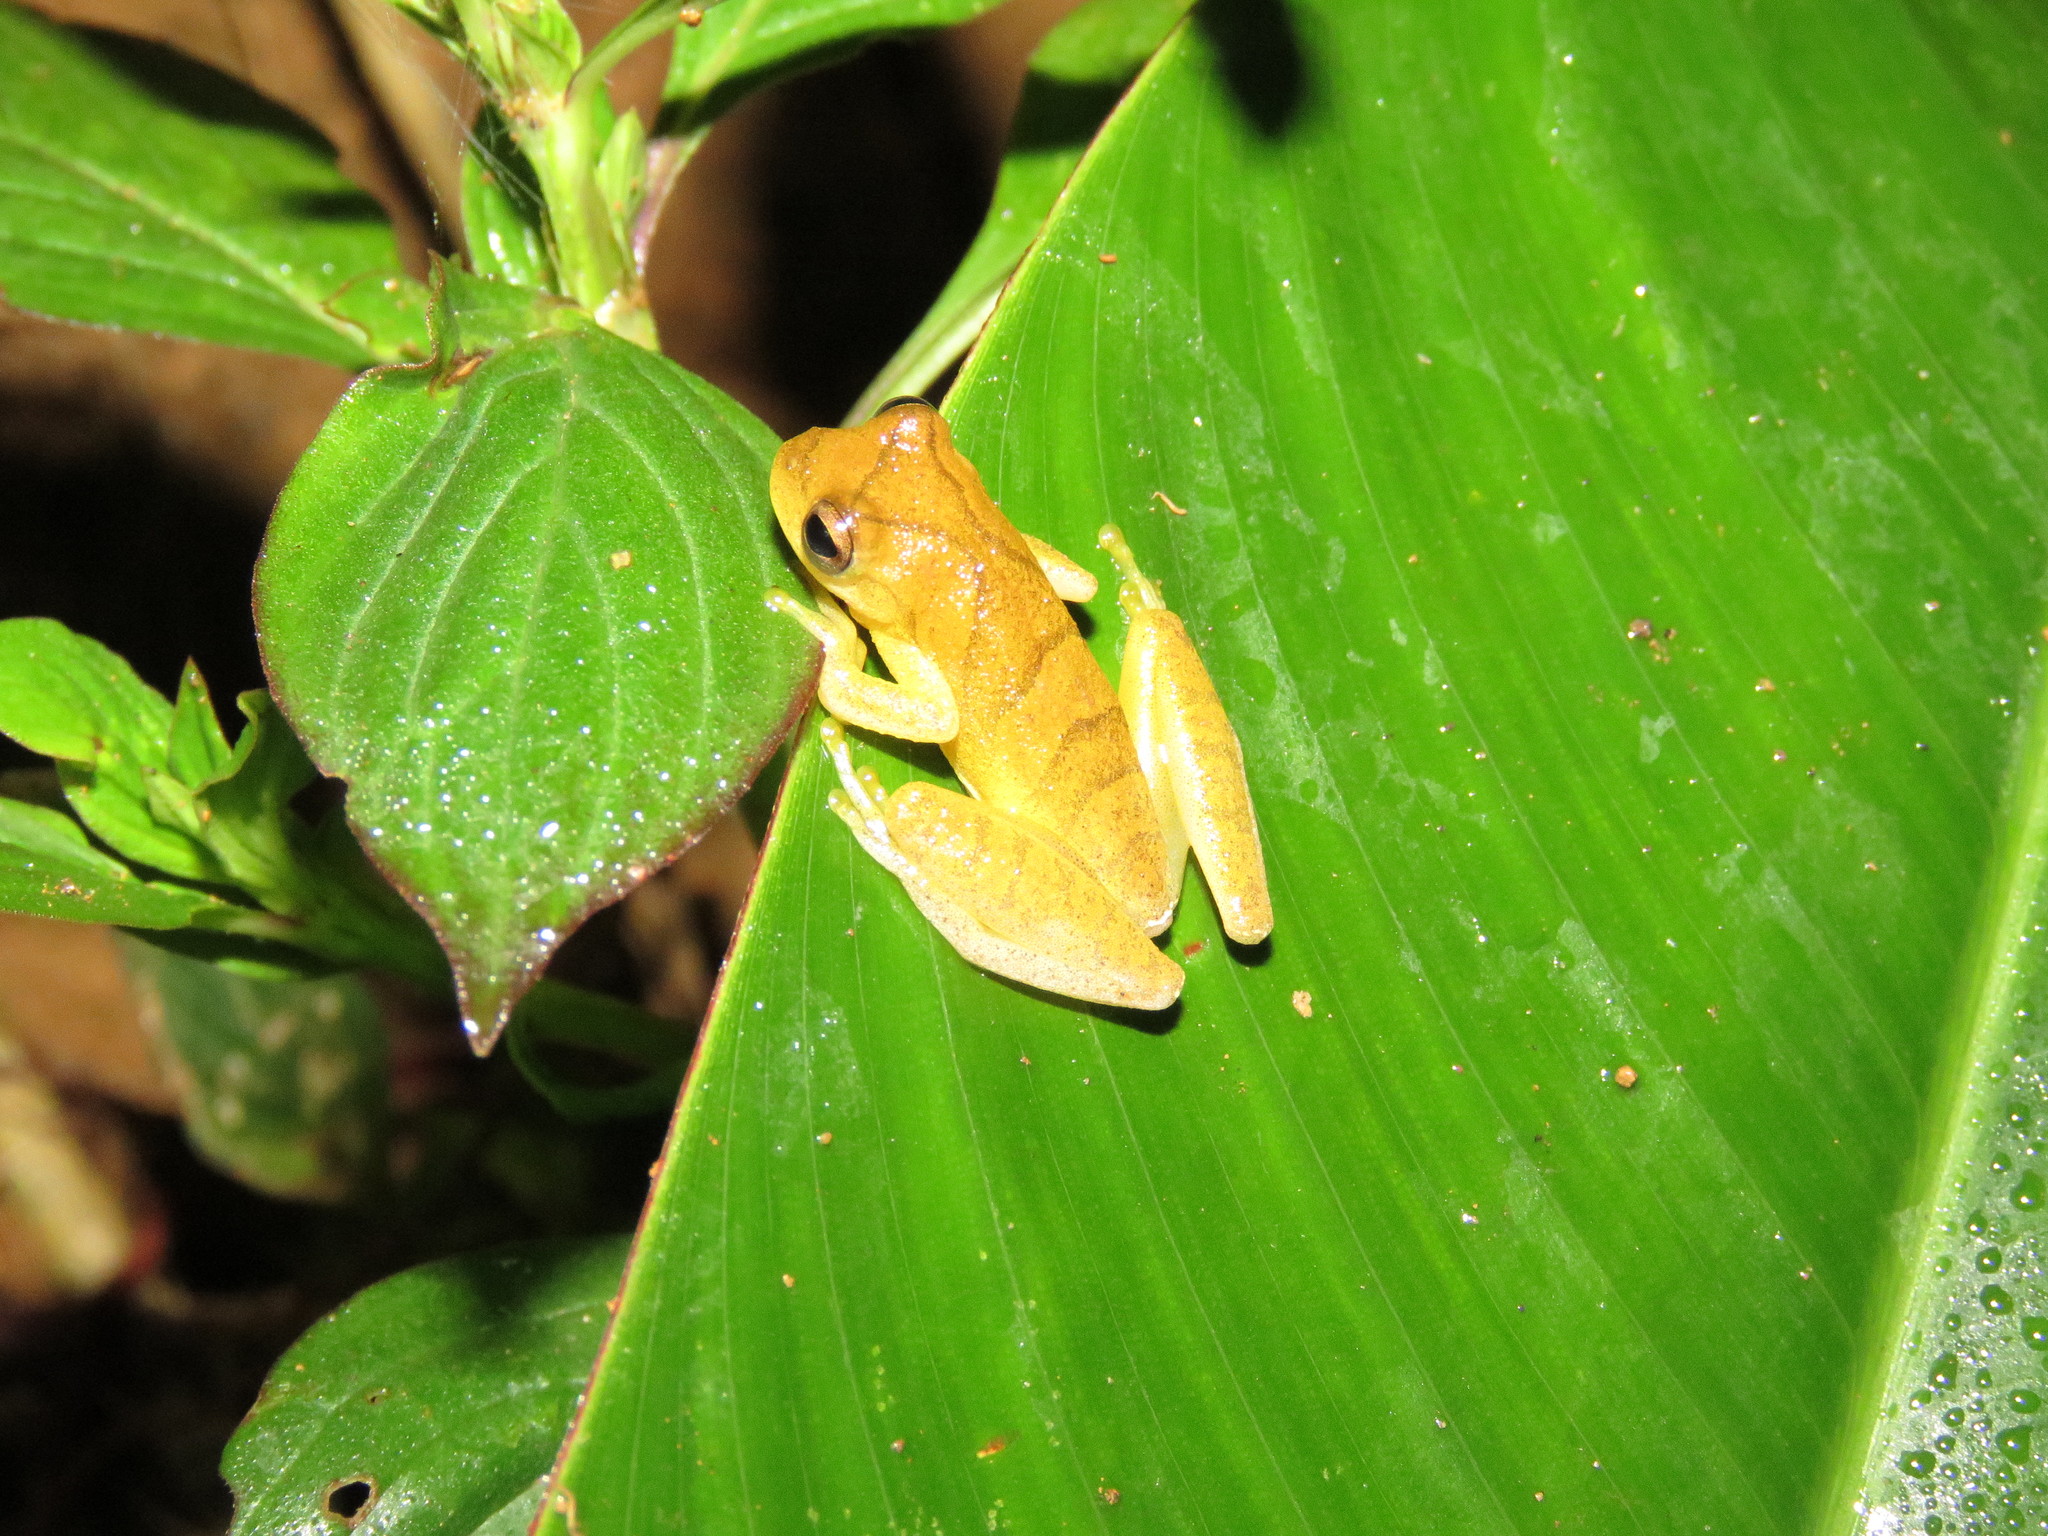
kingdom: Animalia
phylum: Chordata
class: Amphibia
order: Anura
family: Hylidae
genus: Dendropsophus
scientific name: Dendropsophus minutus
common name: Lesser treefrog
